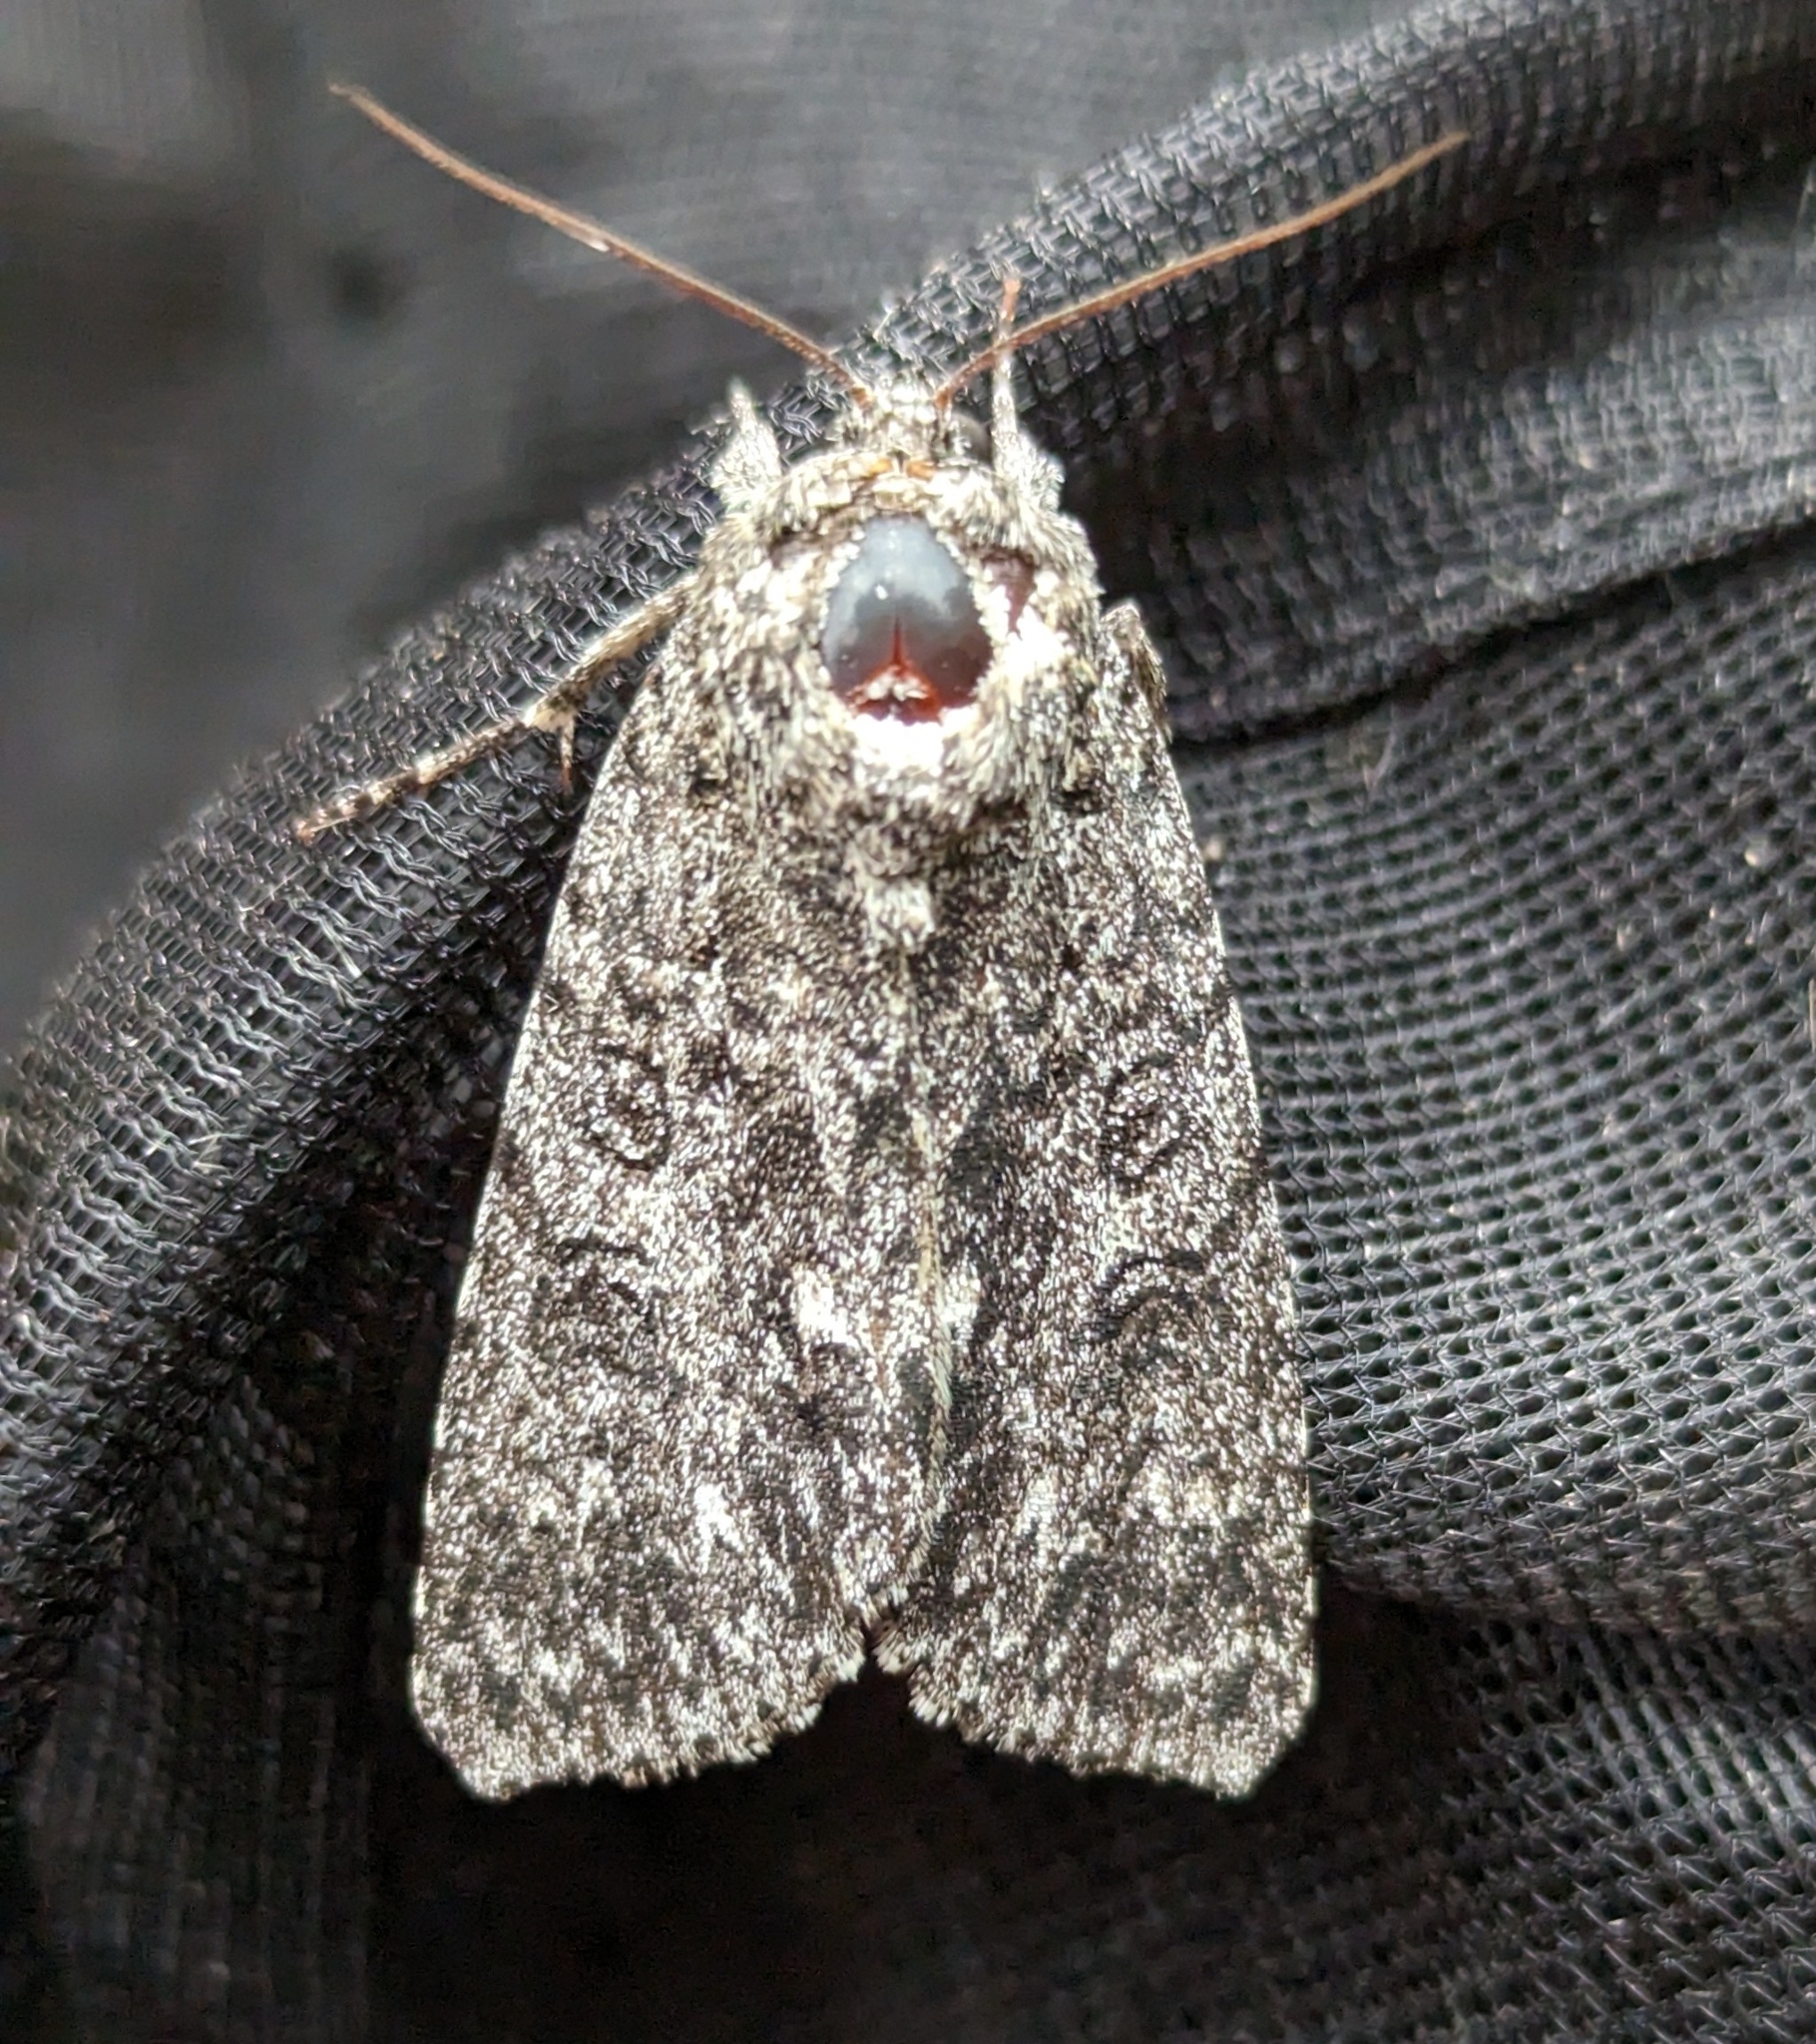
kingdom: Animalia
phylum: Arthropoda
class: Insecta
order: Lepidoptera
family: Noctuidae
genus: Acronicta
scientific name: Acronicta impleta
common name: Powdered dagger
